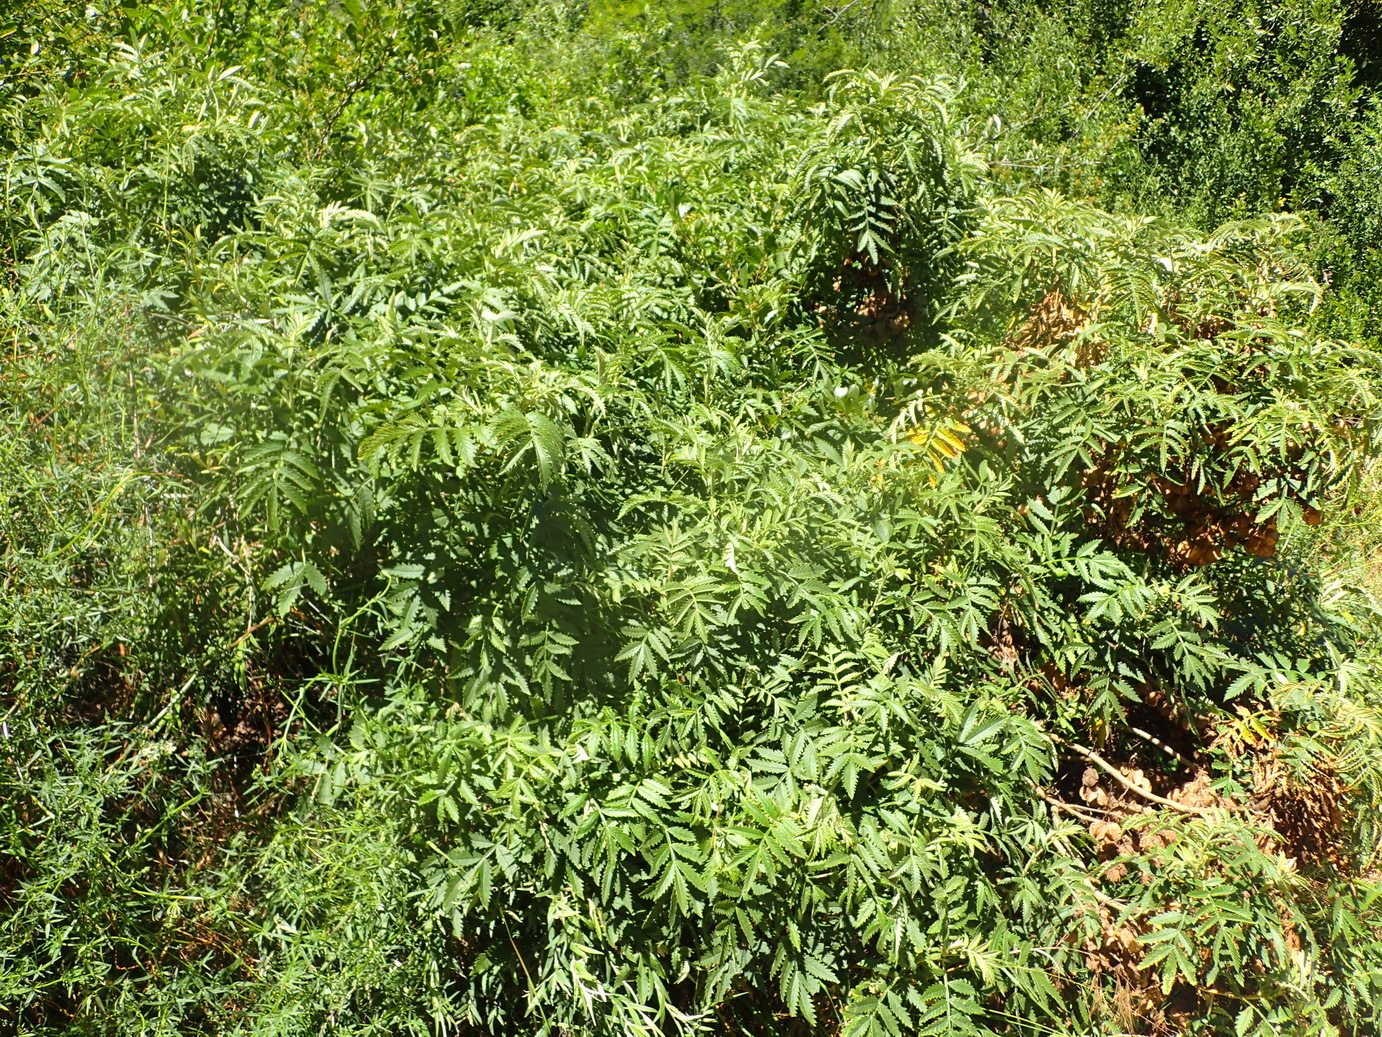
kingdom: Plantae
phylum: Tracheophyta
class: Magnoliopsida
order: Geraniales
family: Melianthaceae
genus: Melianthus
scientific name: Melianthus comosus
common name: Touch-me-not
